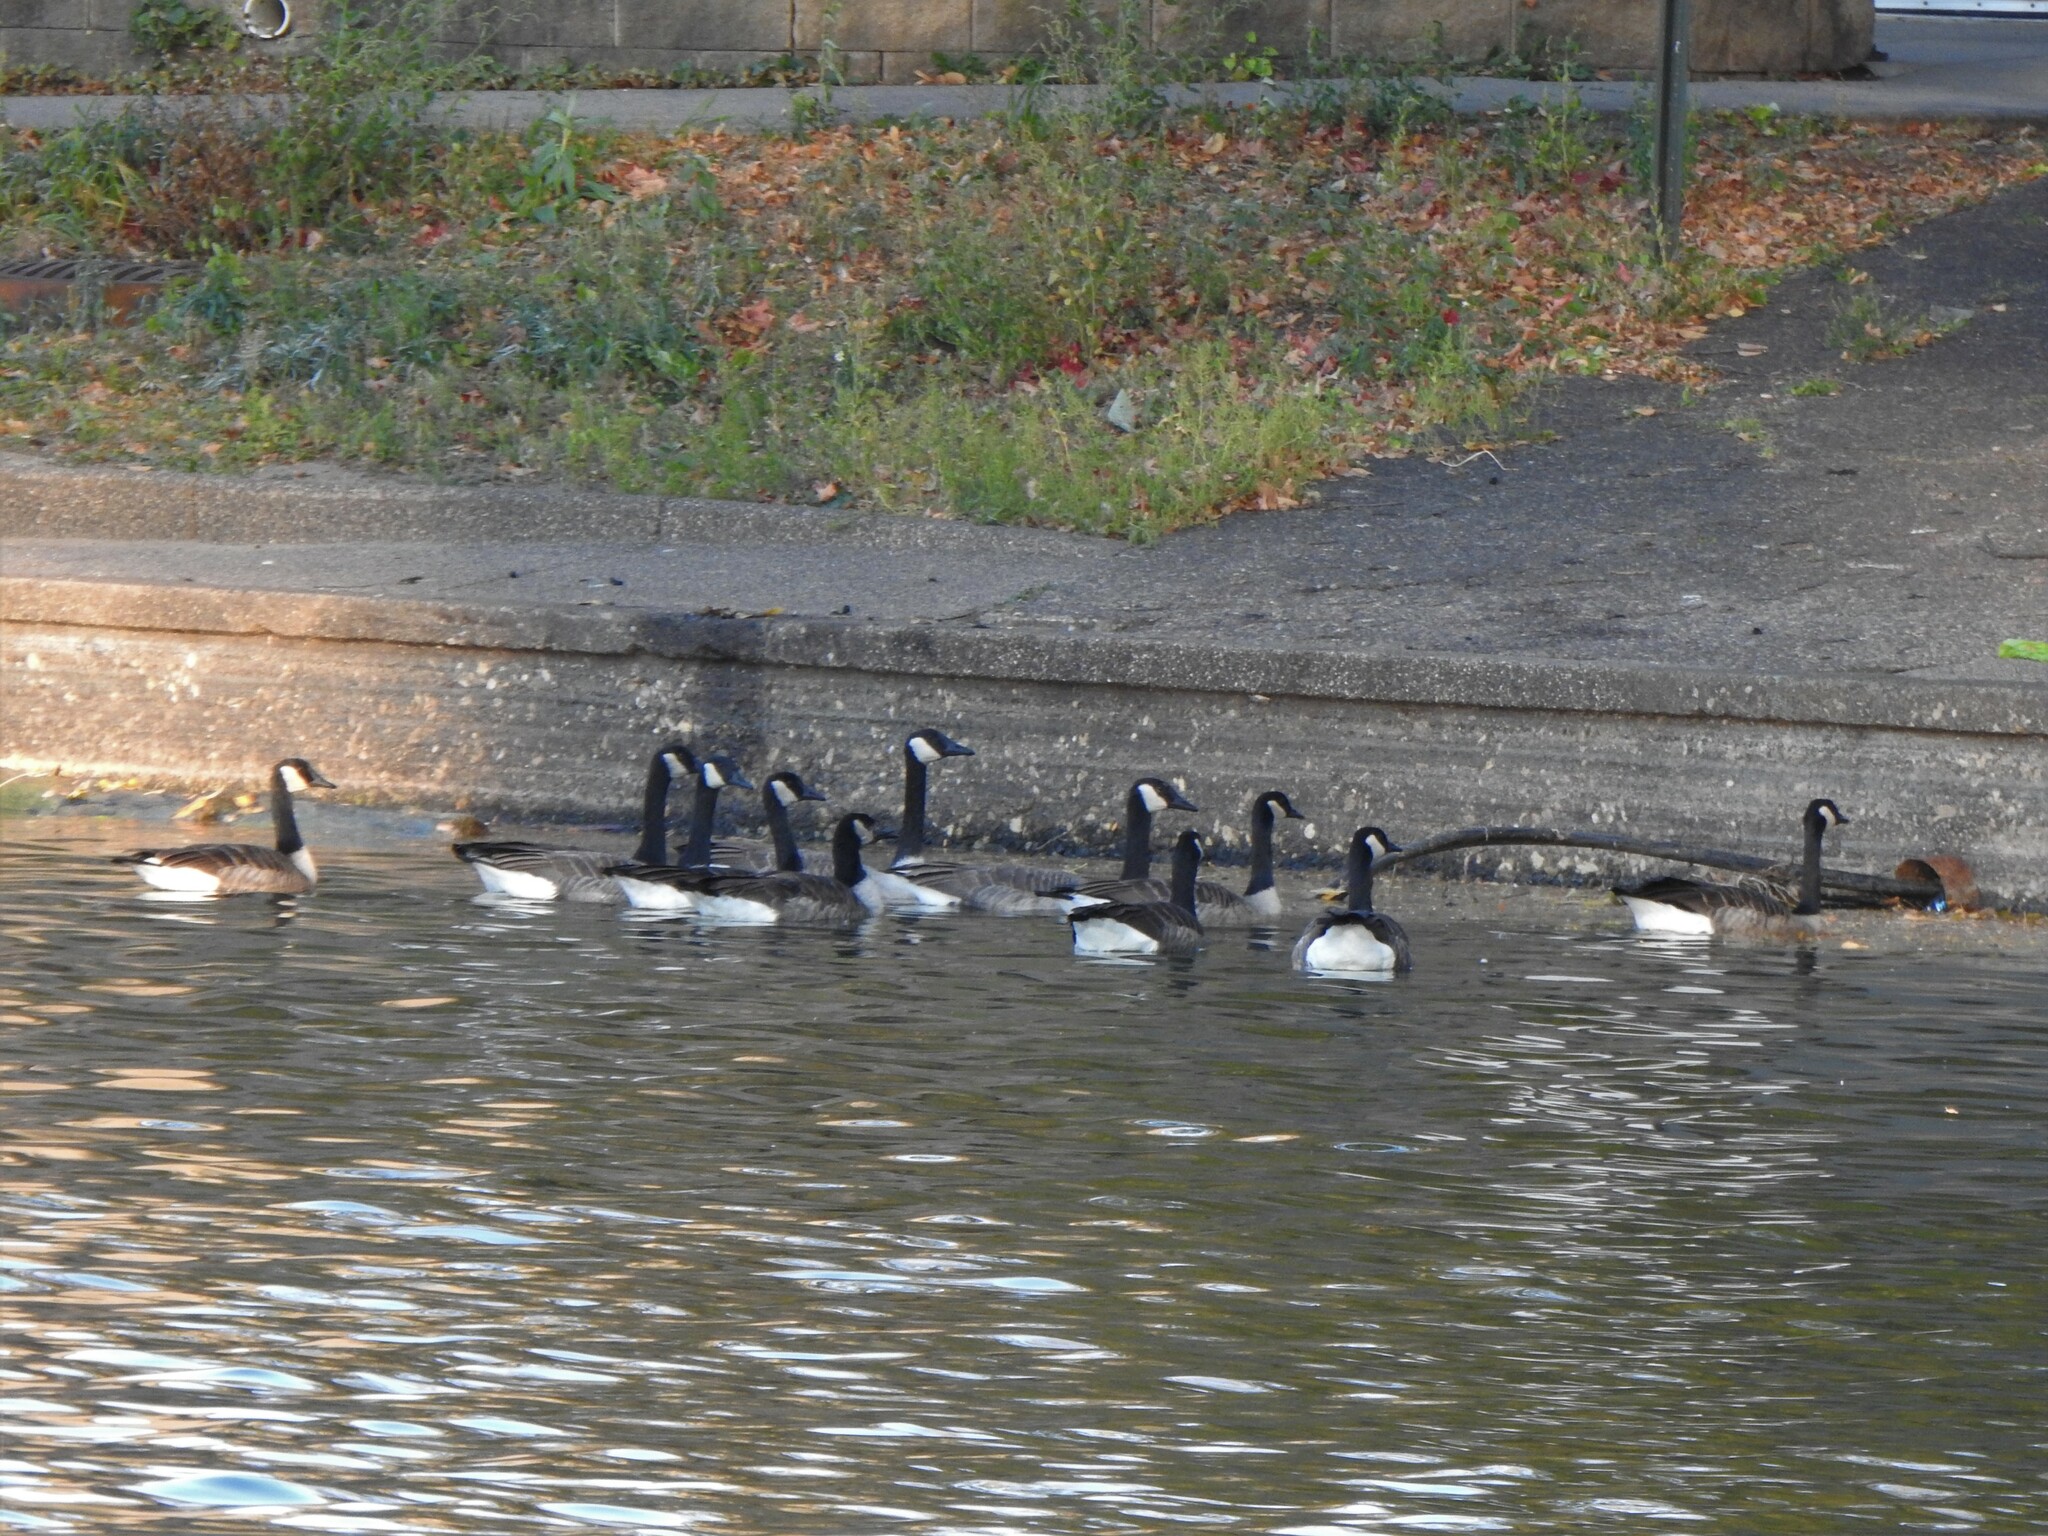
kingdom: Animalia
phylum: Chordata
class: Aves
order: Anseriformes
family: Anatidae
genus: Branta
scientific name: Branta canadensis
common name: Canada goose
